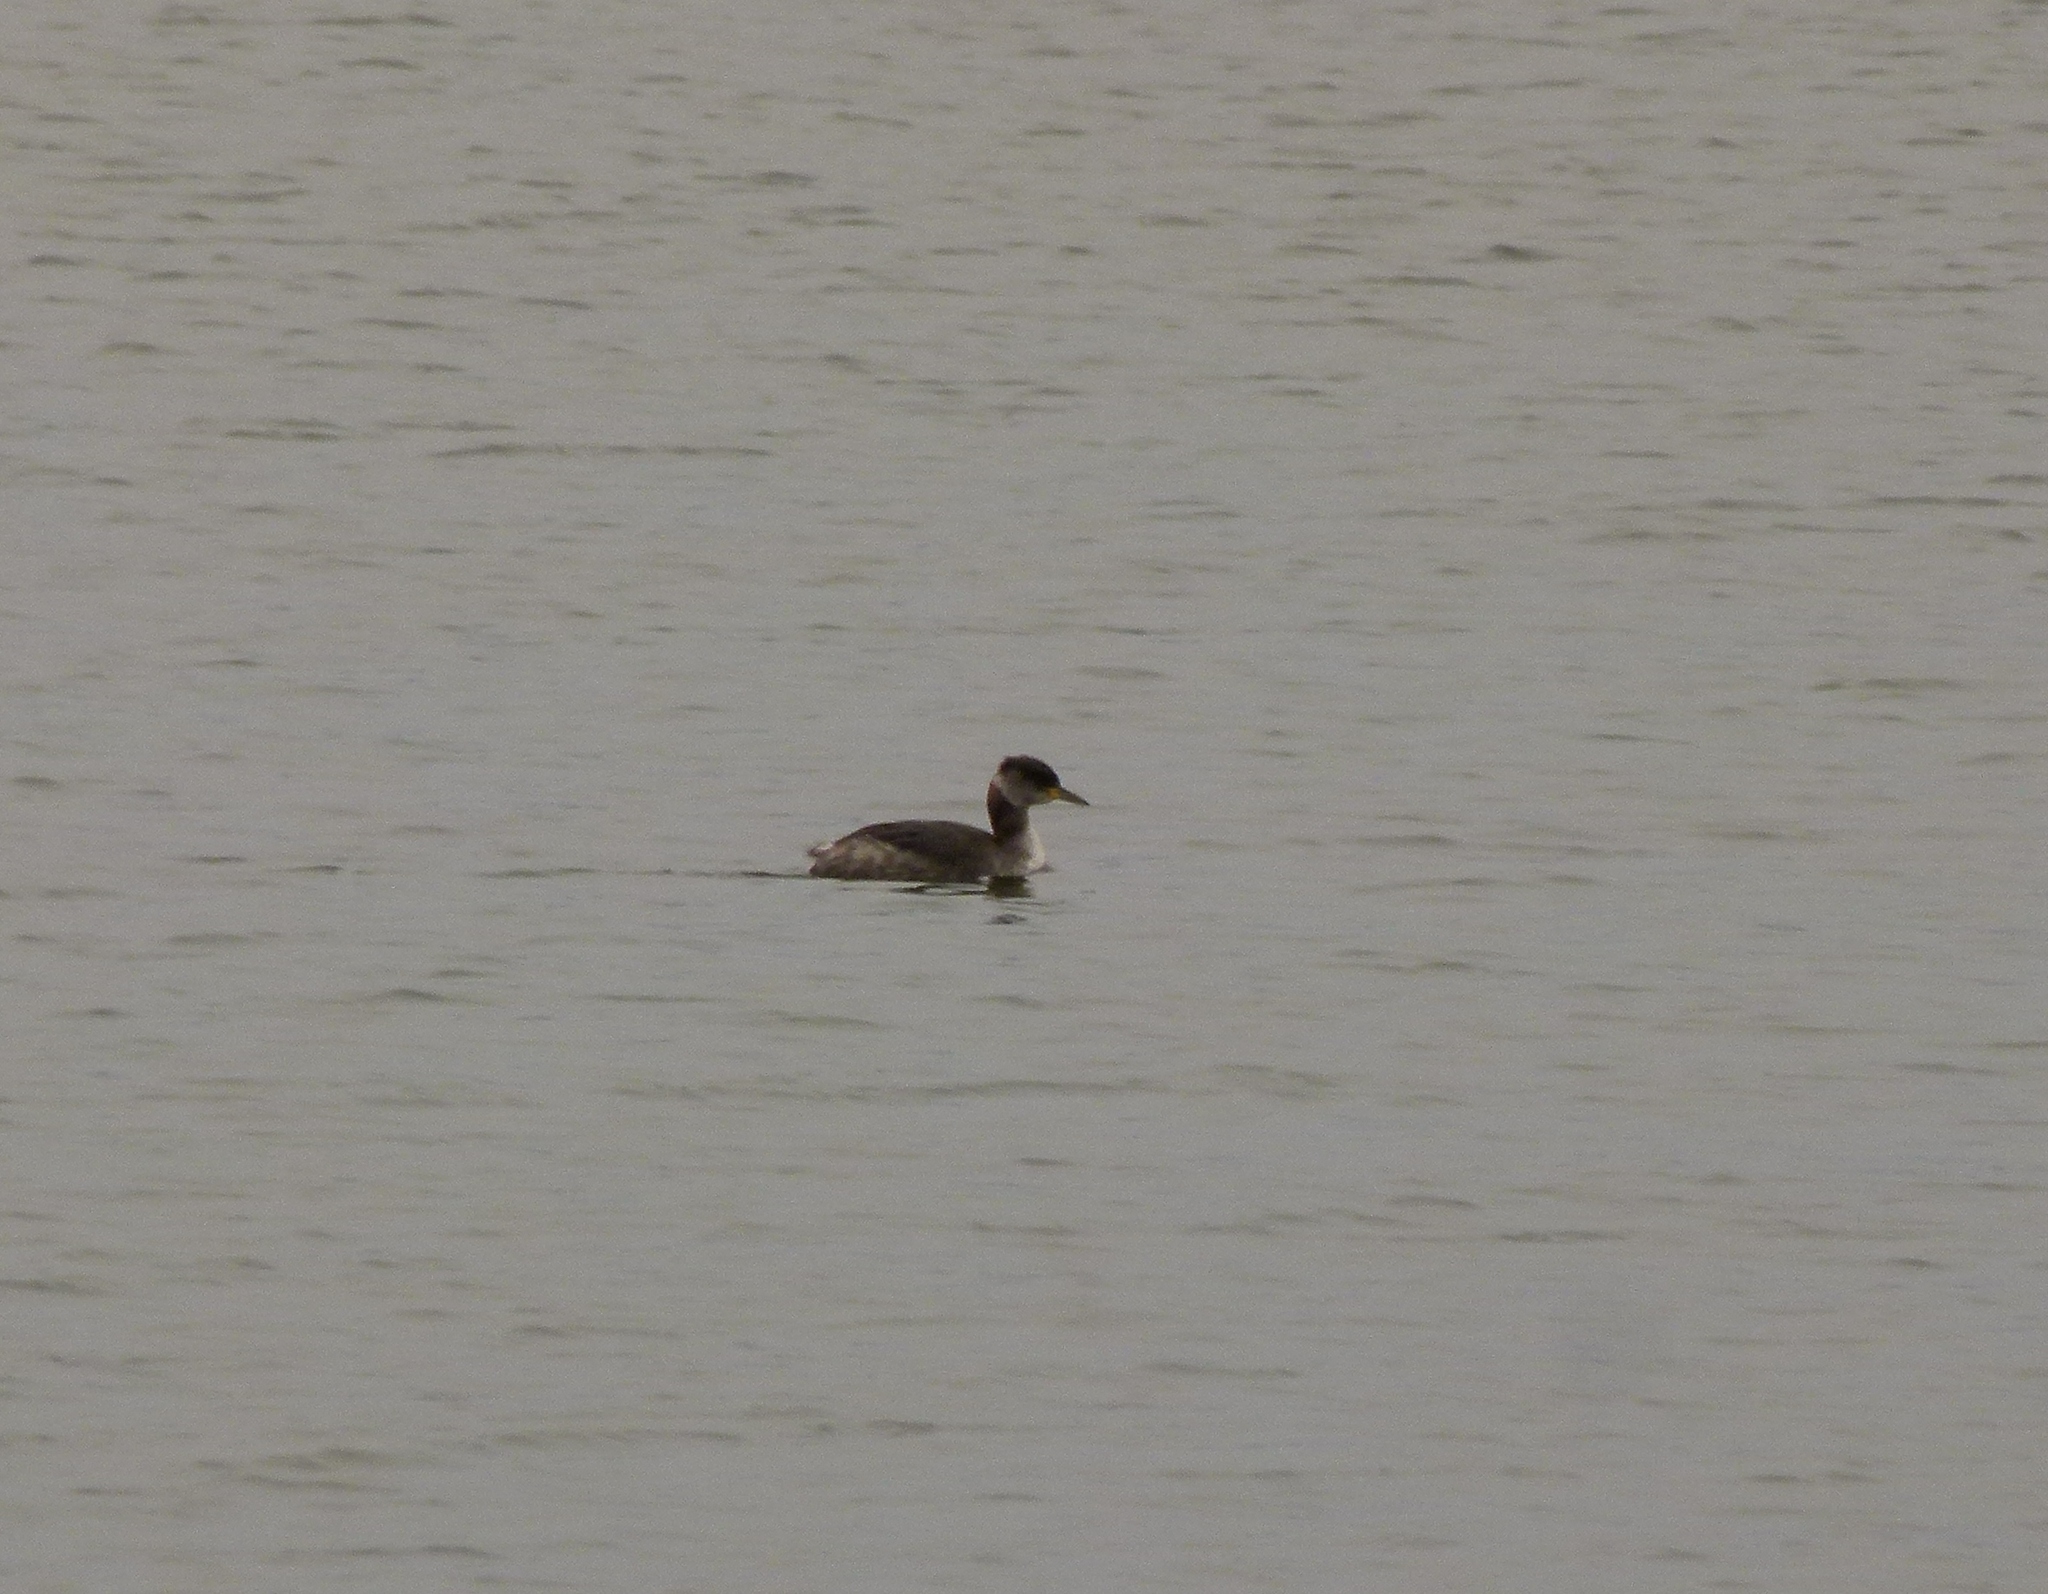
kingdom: Animalia
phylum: Chordata
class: Aves
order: Podicipediformes
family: Podicipedidae
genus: Podiceps
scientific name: Podiceps grisegena
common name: Red-necked grebe
